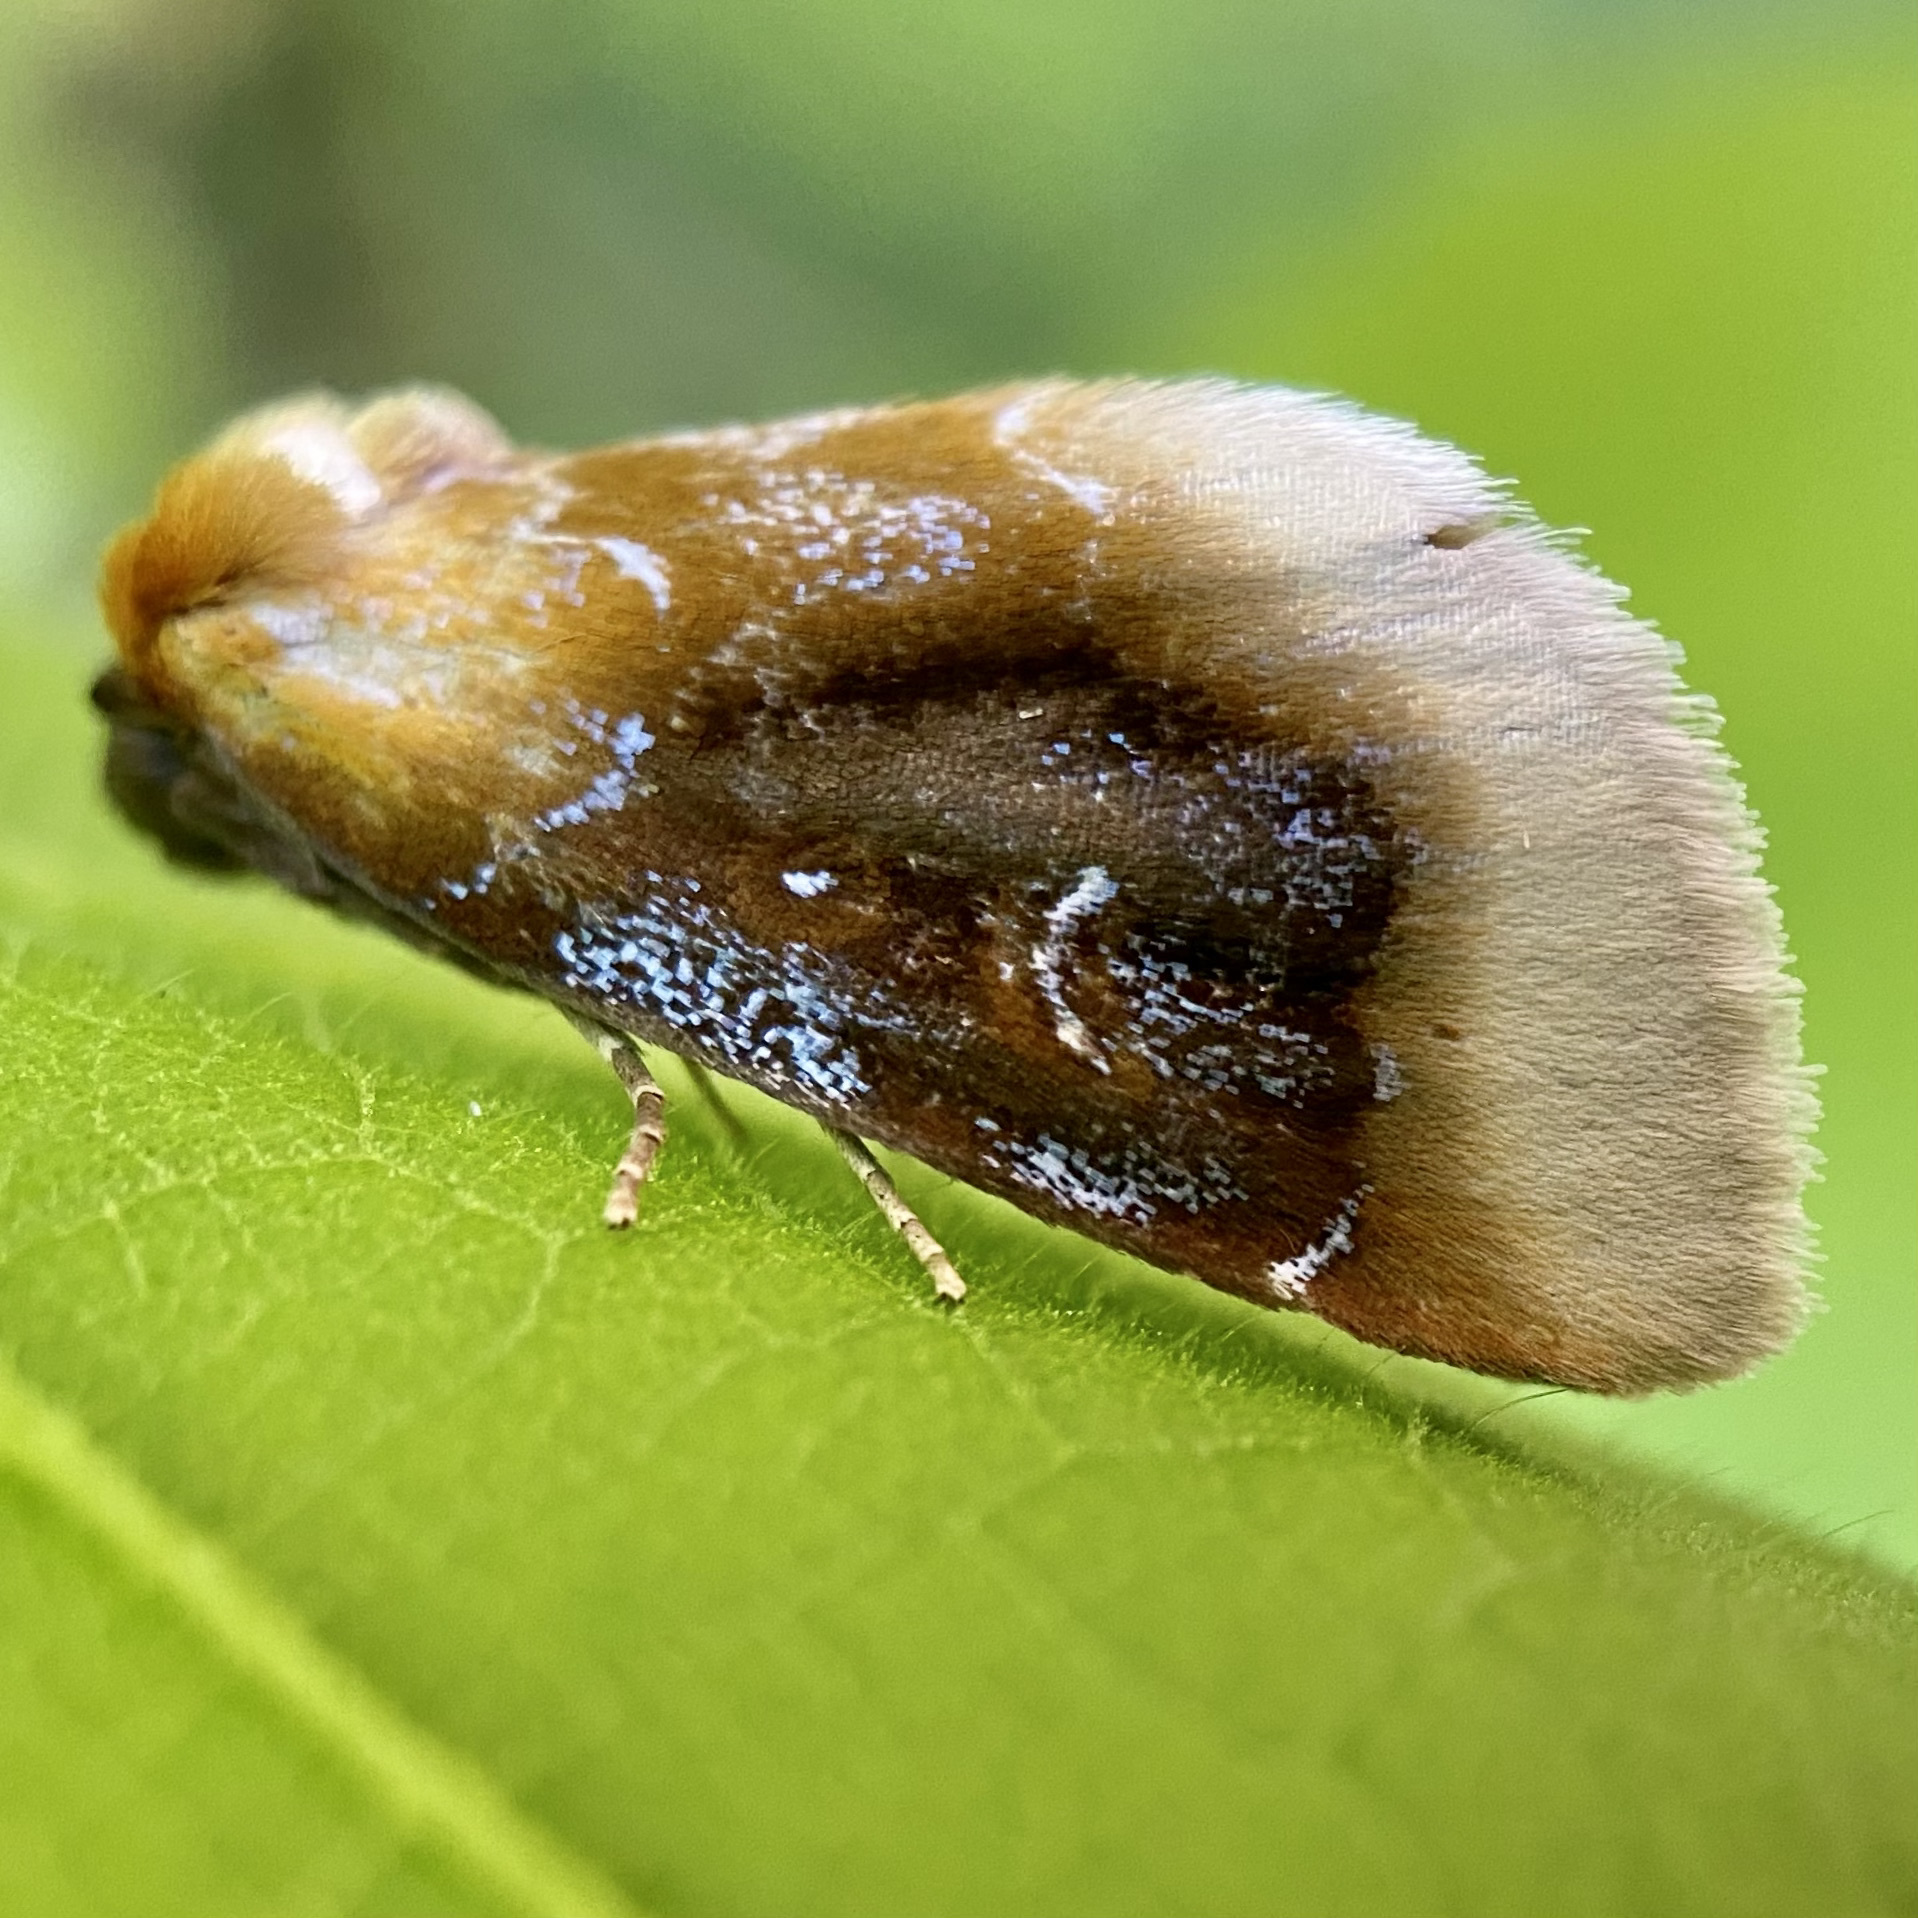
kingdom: Animalia
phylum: Arthropoda
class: Insecta
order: Lepidoptera
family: Noctuidae
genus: Chrysoecia
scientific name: Chrysoecia scira
